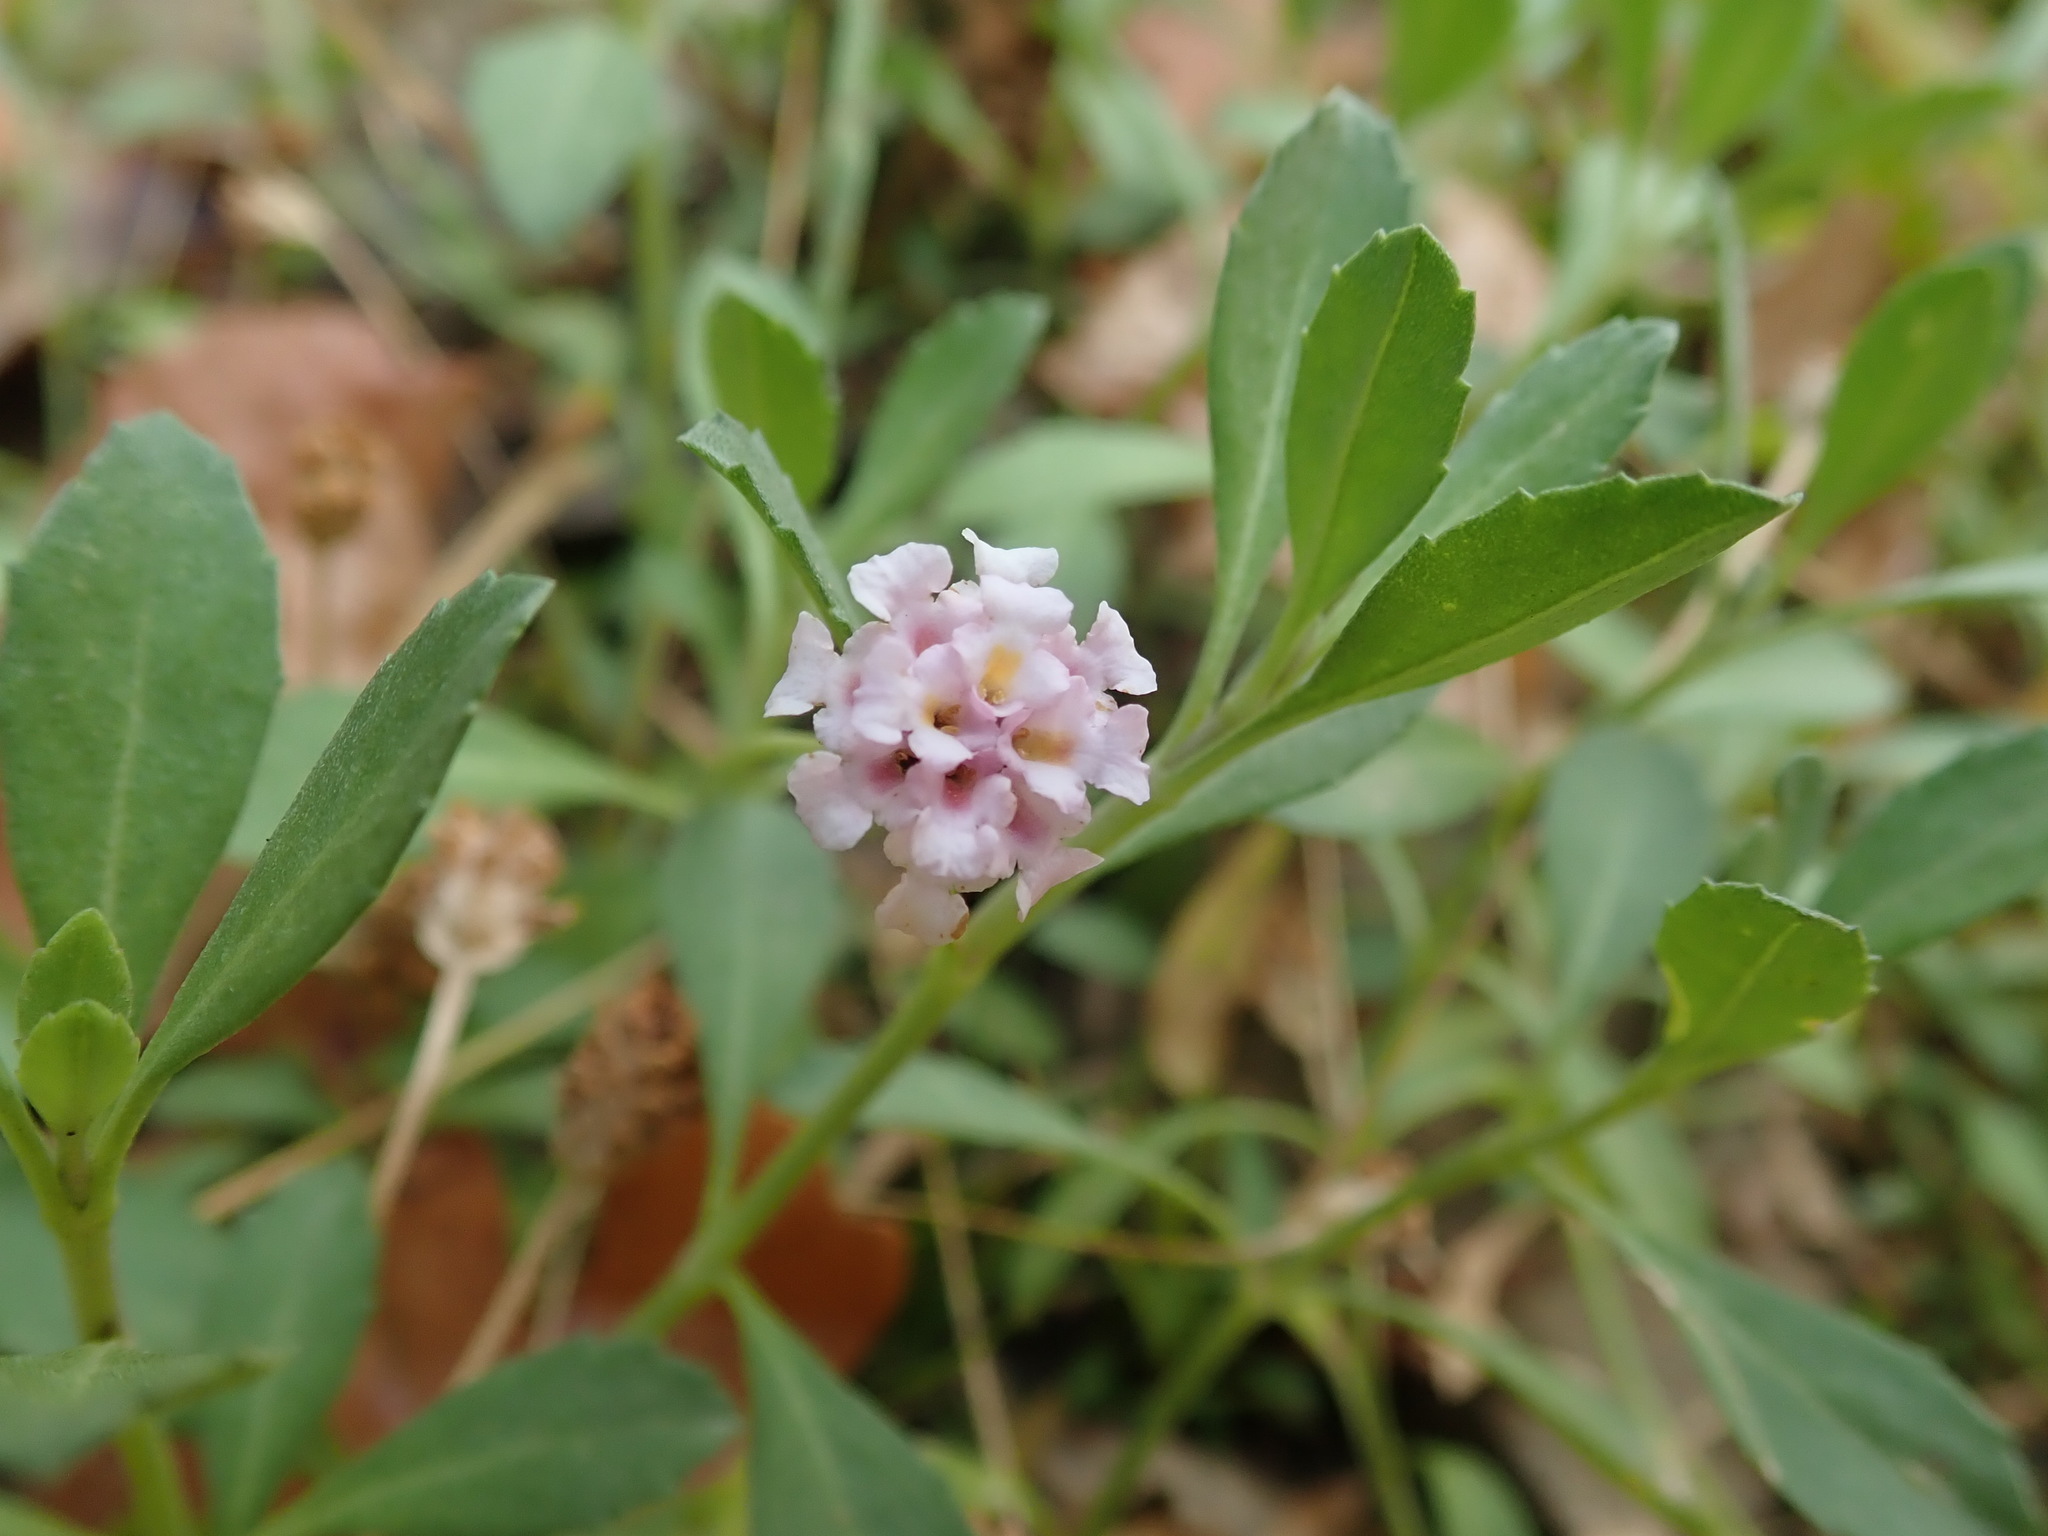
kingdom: Plantae
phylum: Tracheophyta
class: Magnoliopsida
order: Lamiales
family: Verbenaceae
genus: Phyla
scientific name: Phyla nodiflora
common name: Frogfruit
